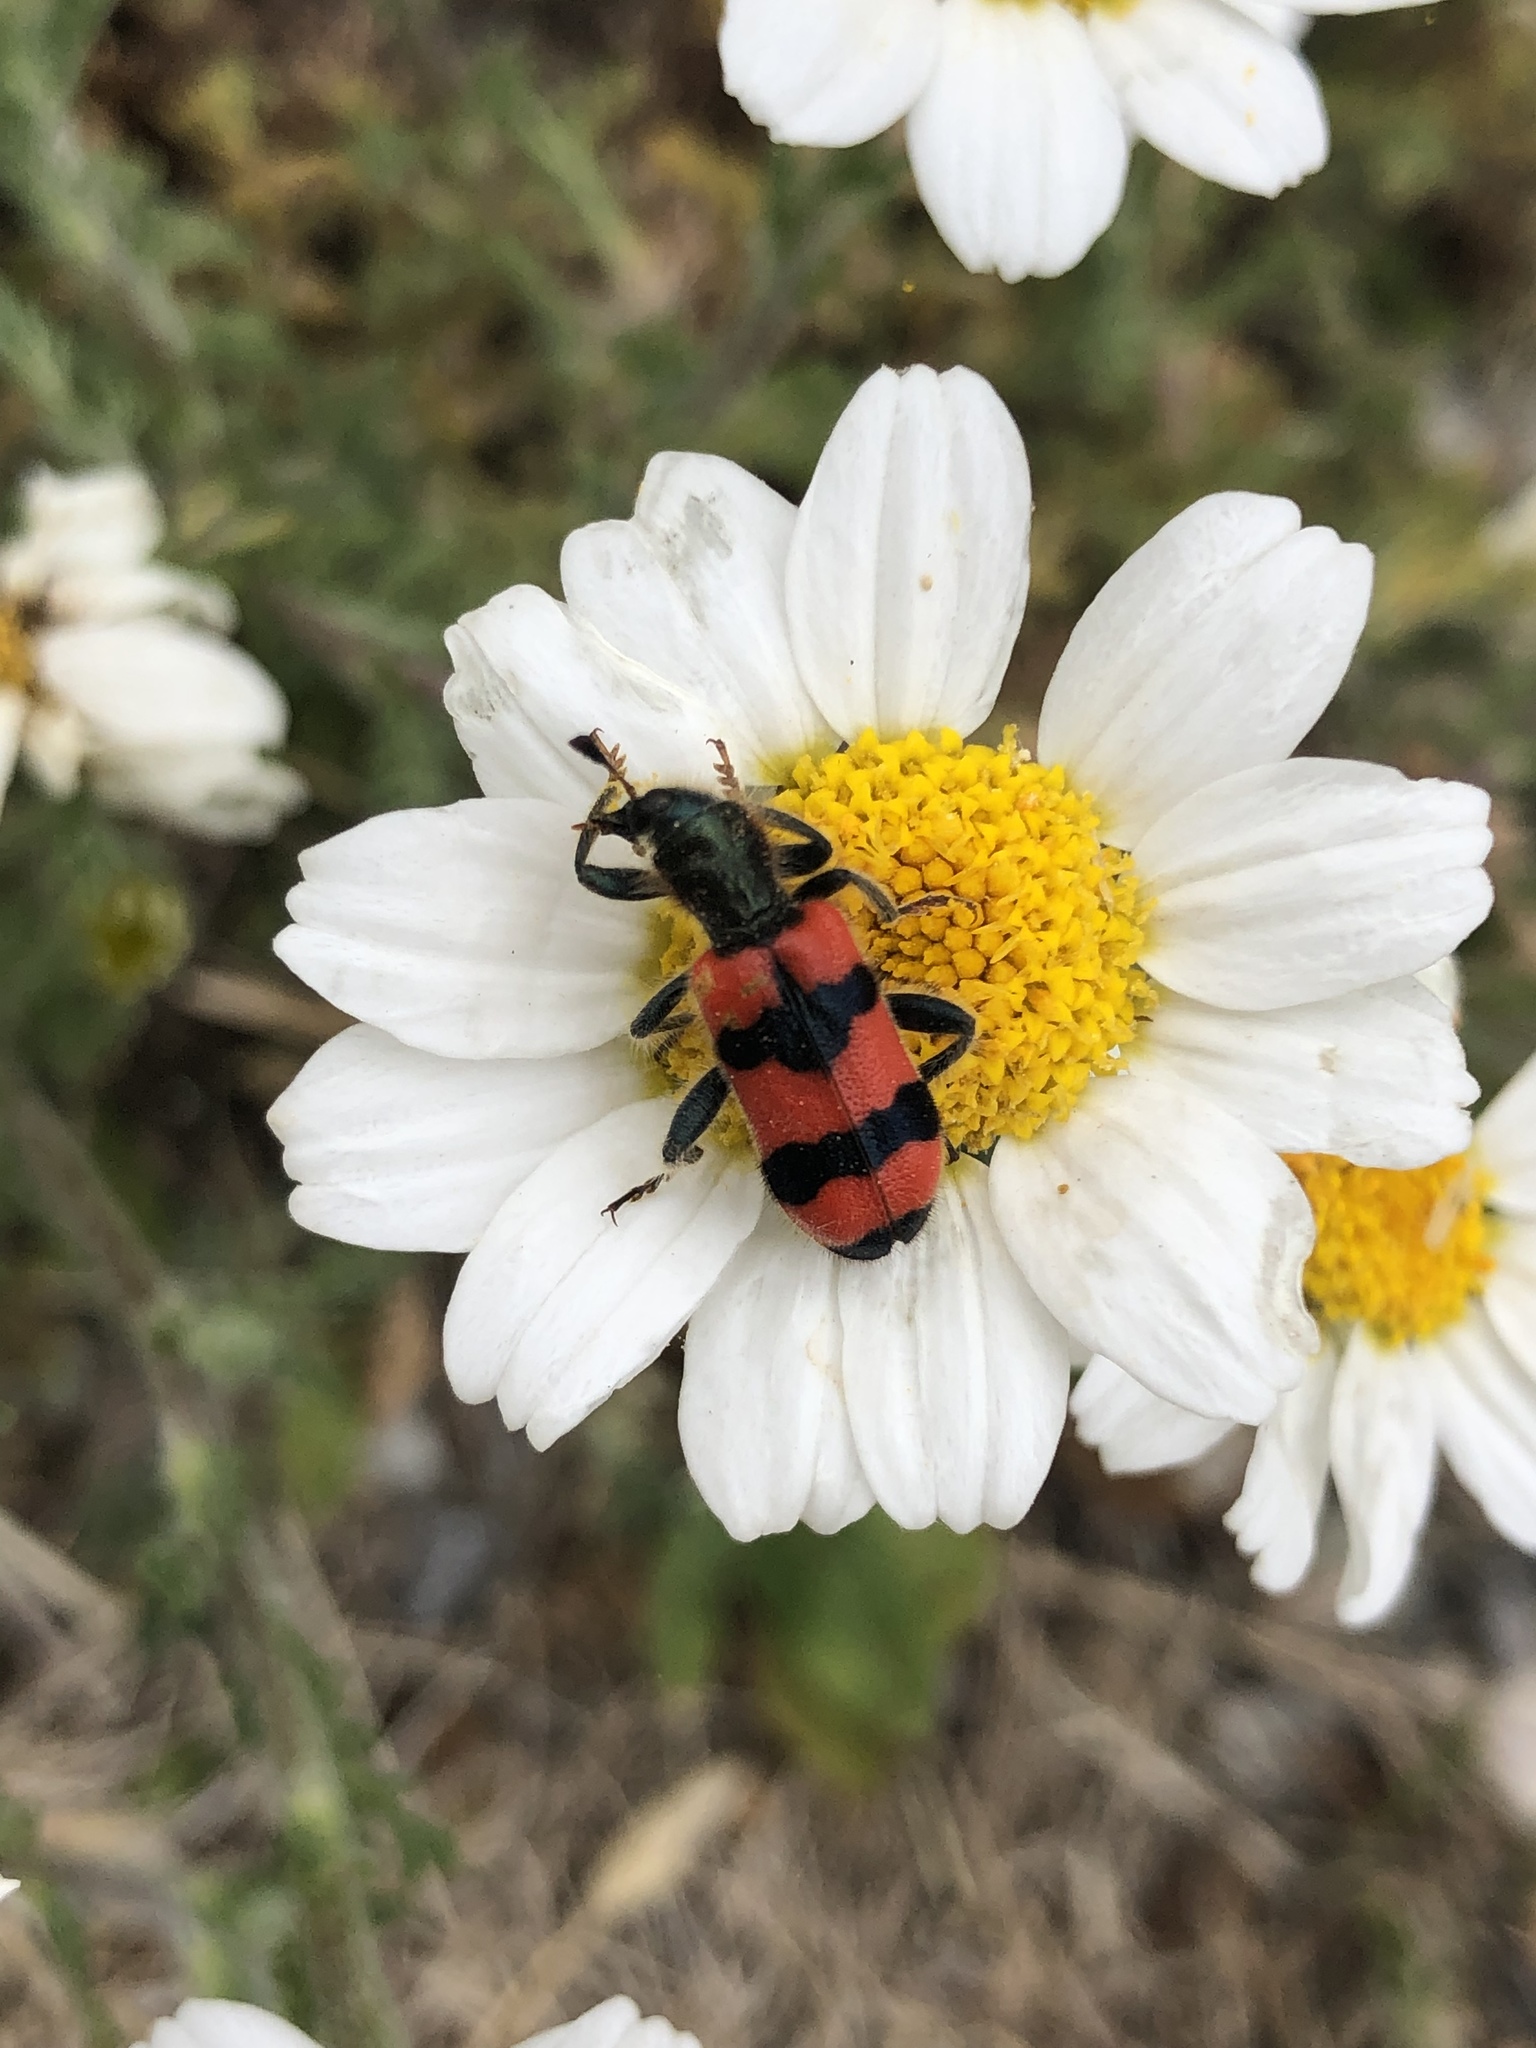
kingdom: Animalia
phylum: Arthropoda
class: Insecta
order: Coleoptera
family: Cleridae
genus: Trichodes
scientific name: Trichodes apiarius
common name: Bee-eating beetle
